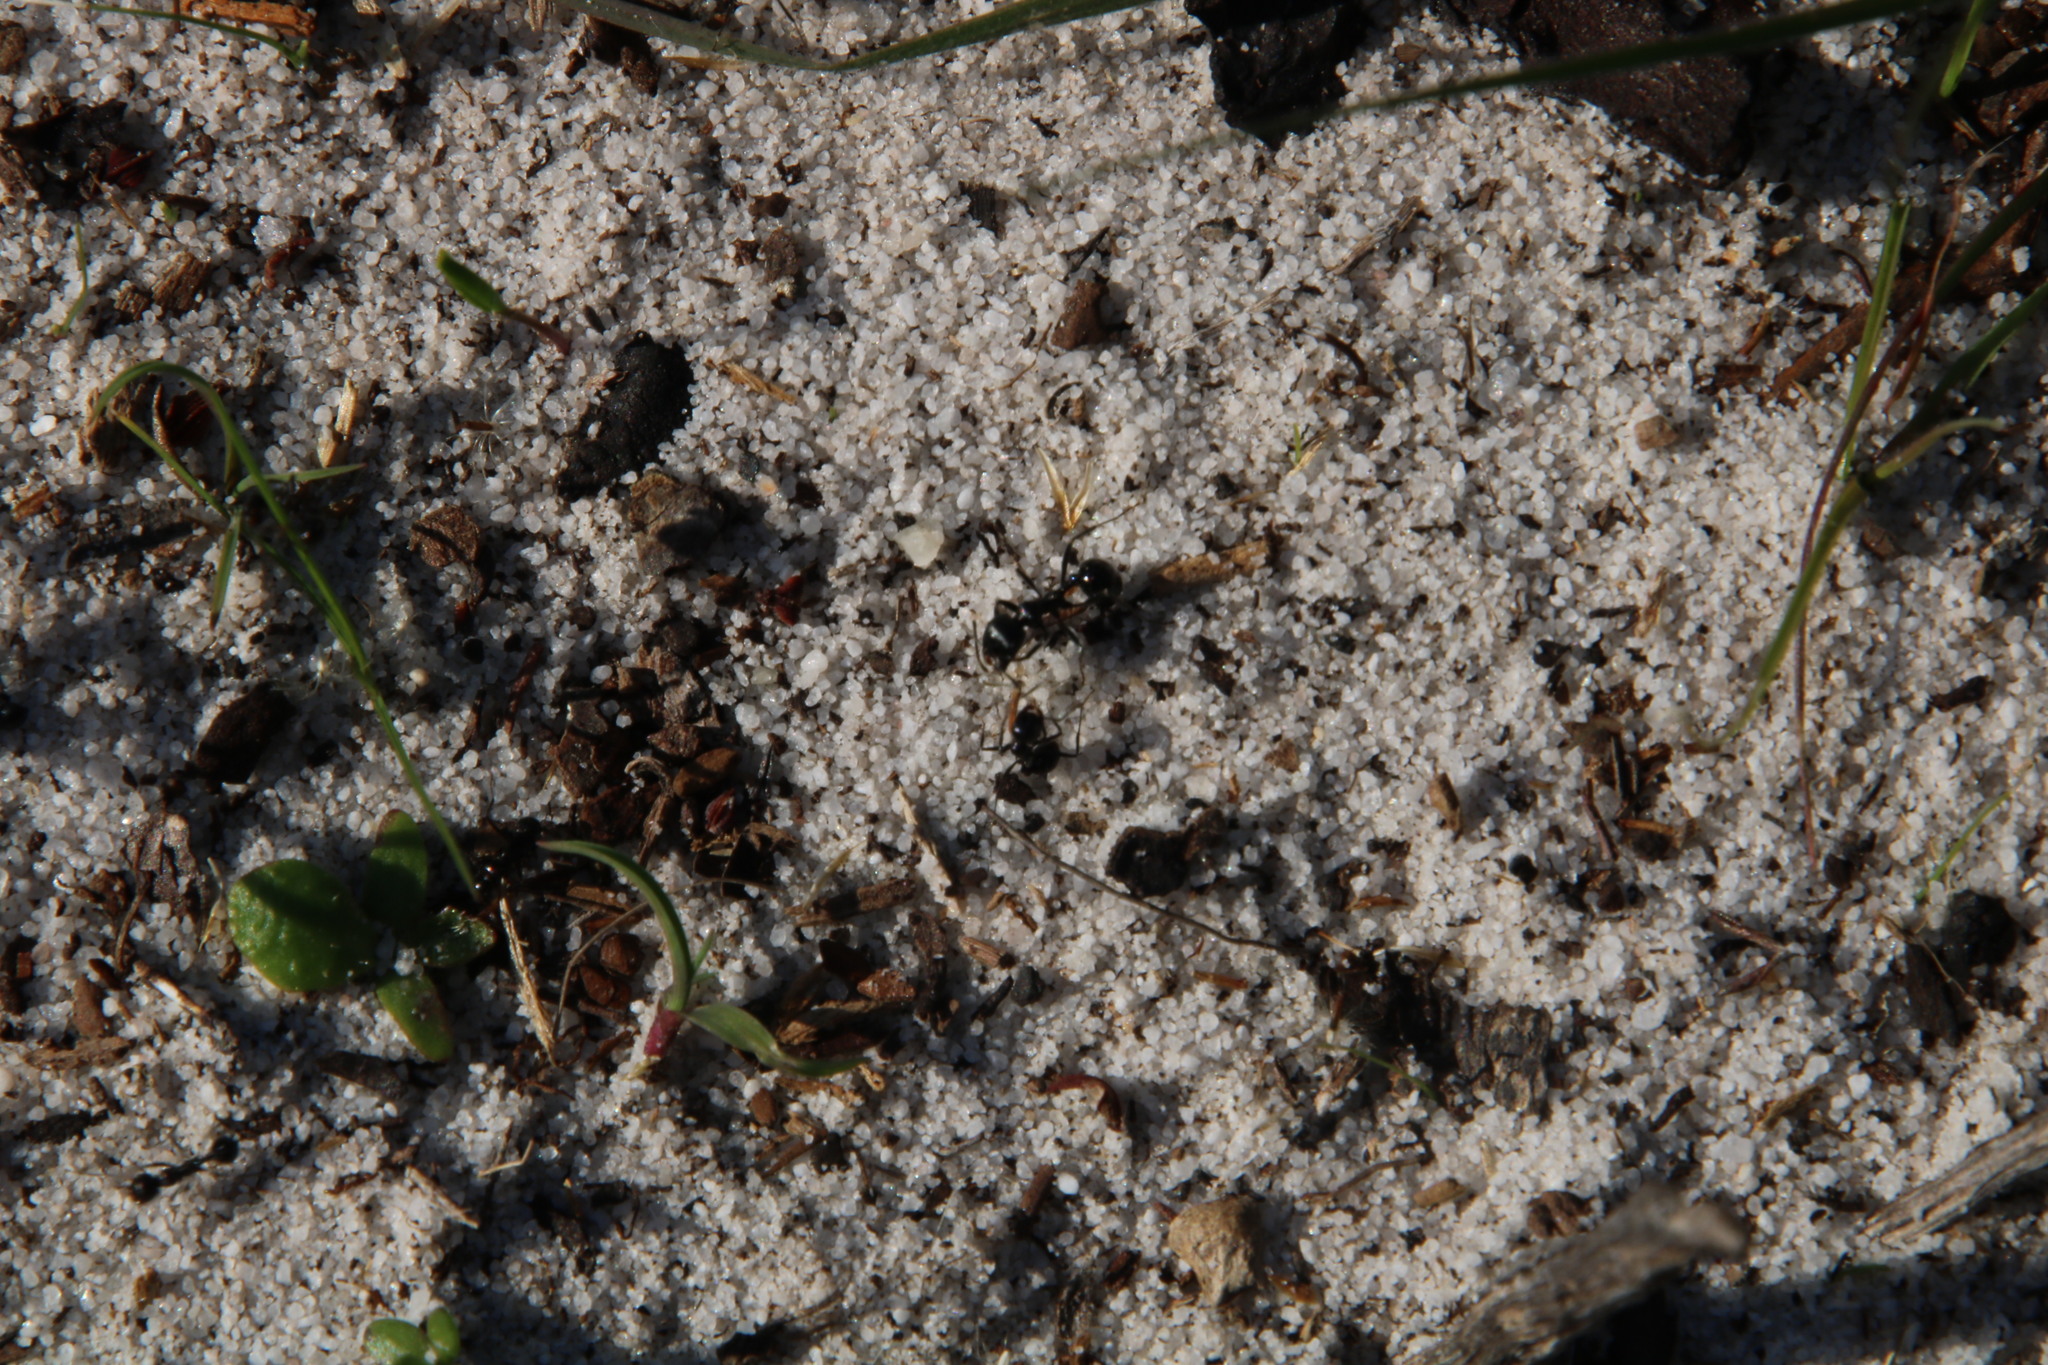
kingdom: Animalia
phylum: Arthropoda
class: Insecta
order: Hymenoptera
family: Formicidae
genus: Messor
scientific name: Messor capensis
